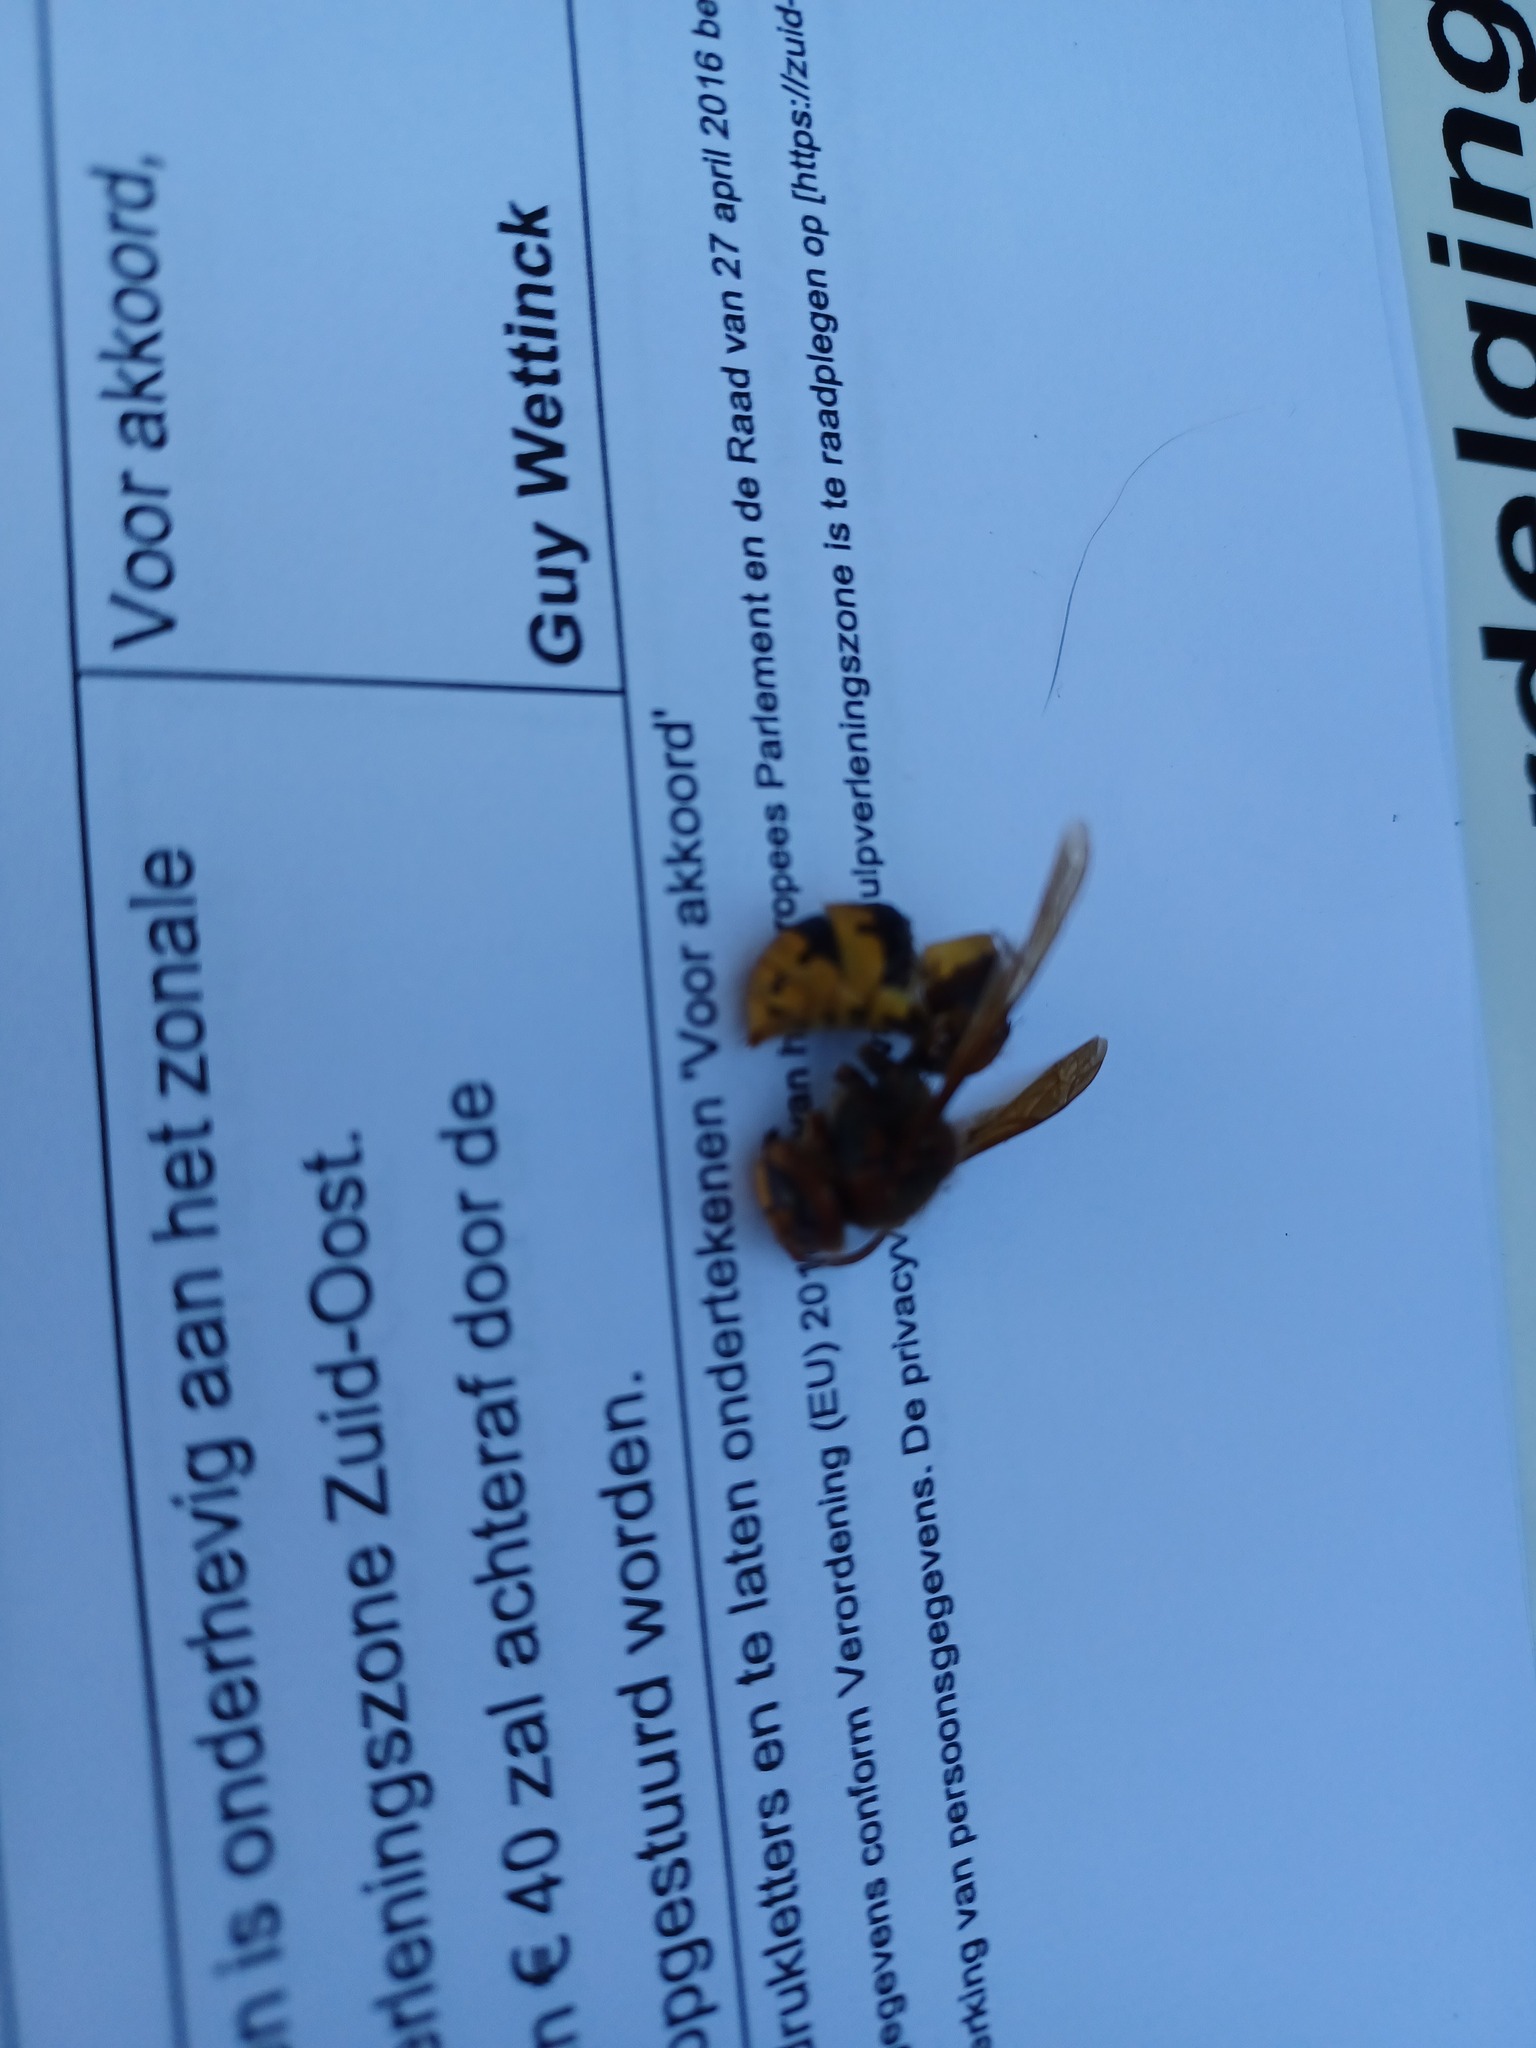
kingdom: Animalia
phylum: Arthropoda
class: Insecta
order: Hymenoptera
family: Vespidae
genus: Vespa
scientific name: Vespa crabro
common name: Hornet
